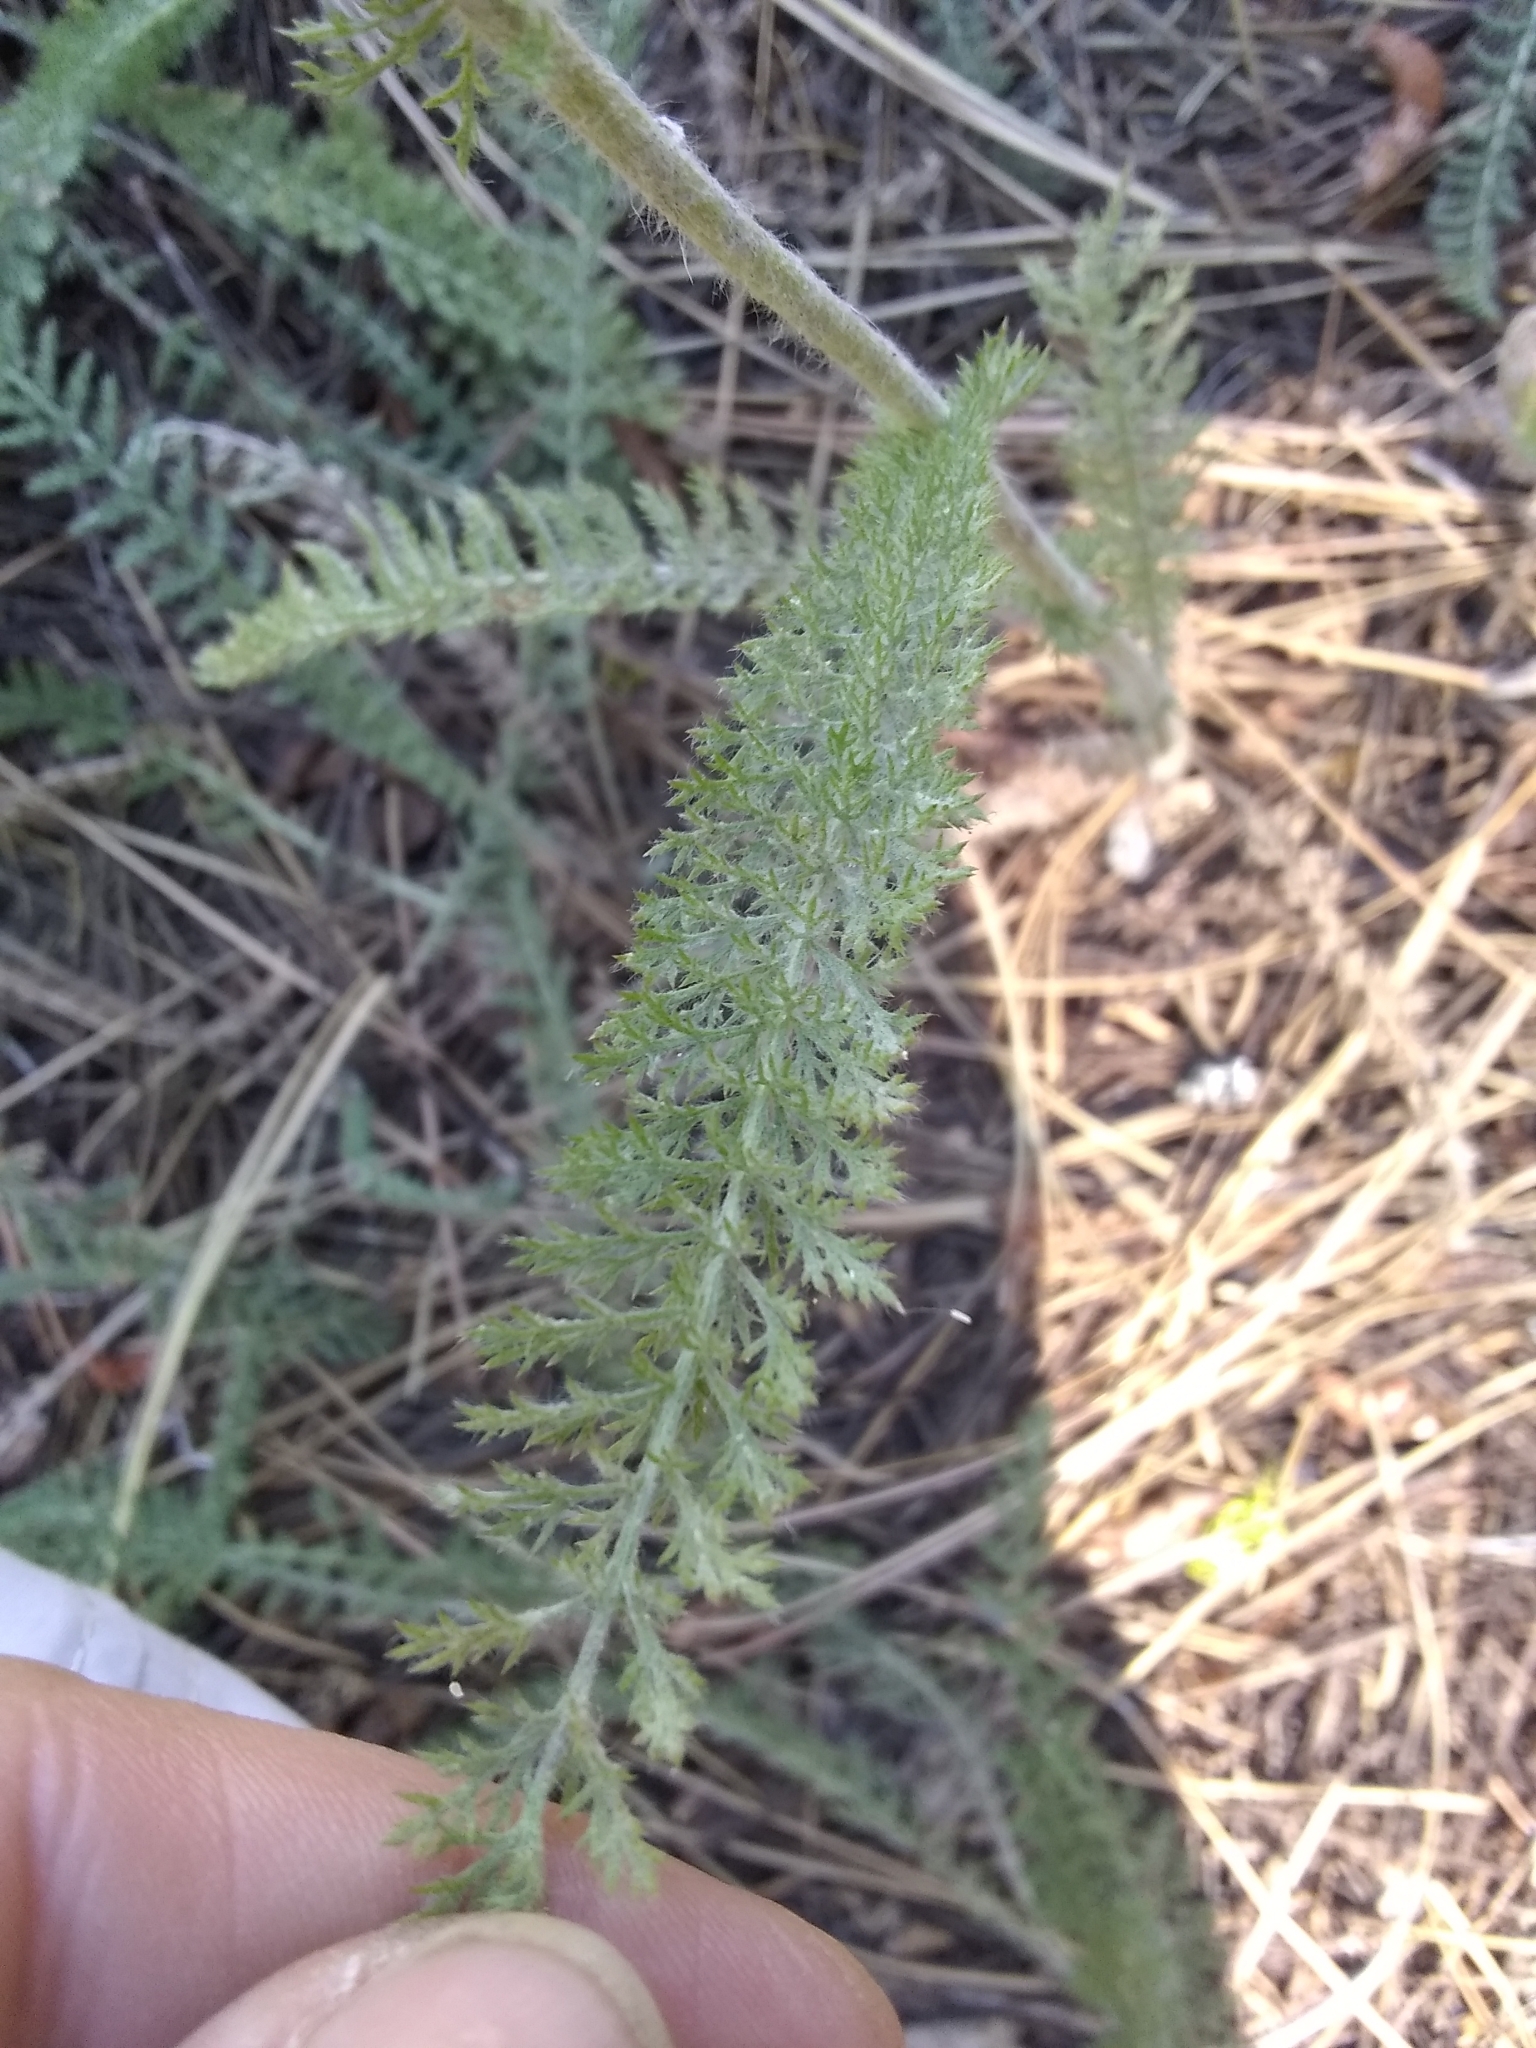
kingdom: Plantae
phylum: Tracheophyta
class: Magnoliopsida
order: Asterales
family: Asteraceae
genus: Achillea
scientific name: Achillea millefolium
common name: Yarrow
